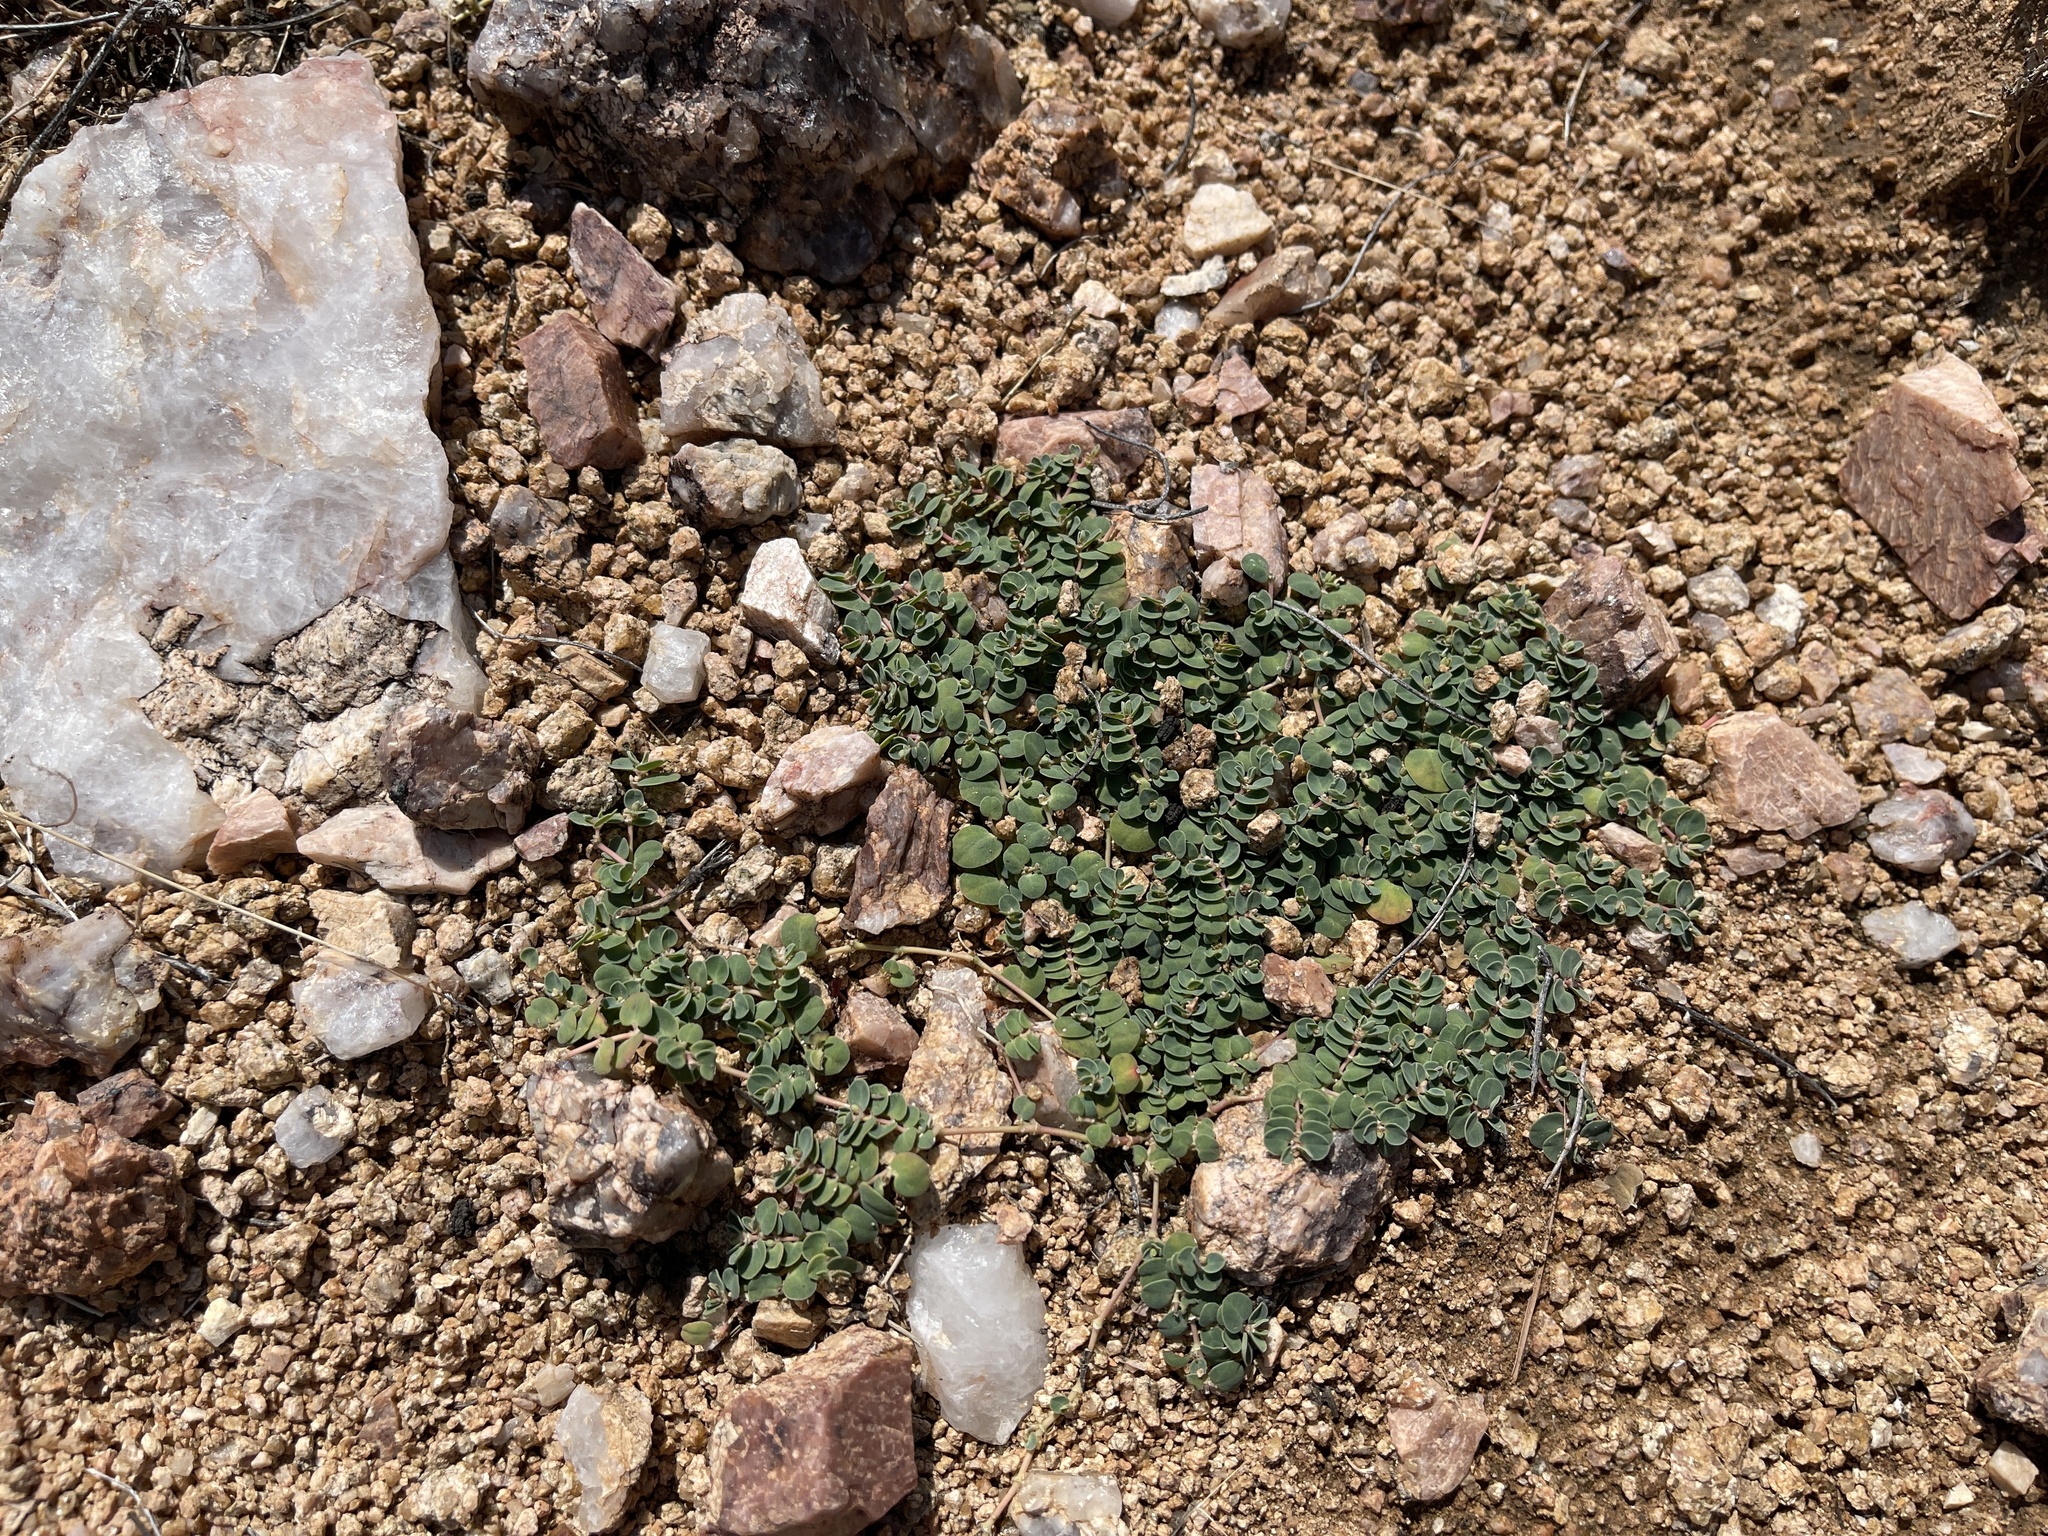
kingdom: Plantae
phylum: Tracheophyta
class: Magnoliopsida
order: Malpighiales
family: Euphorbiaceae
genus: Euphorbia
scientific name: Euphorbia albomarginata
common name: Whitemargin sandmat
